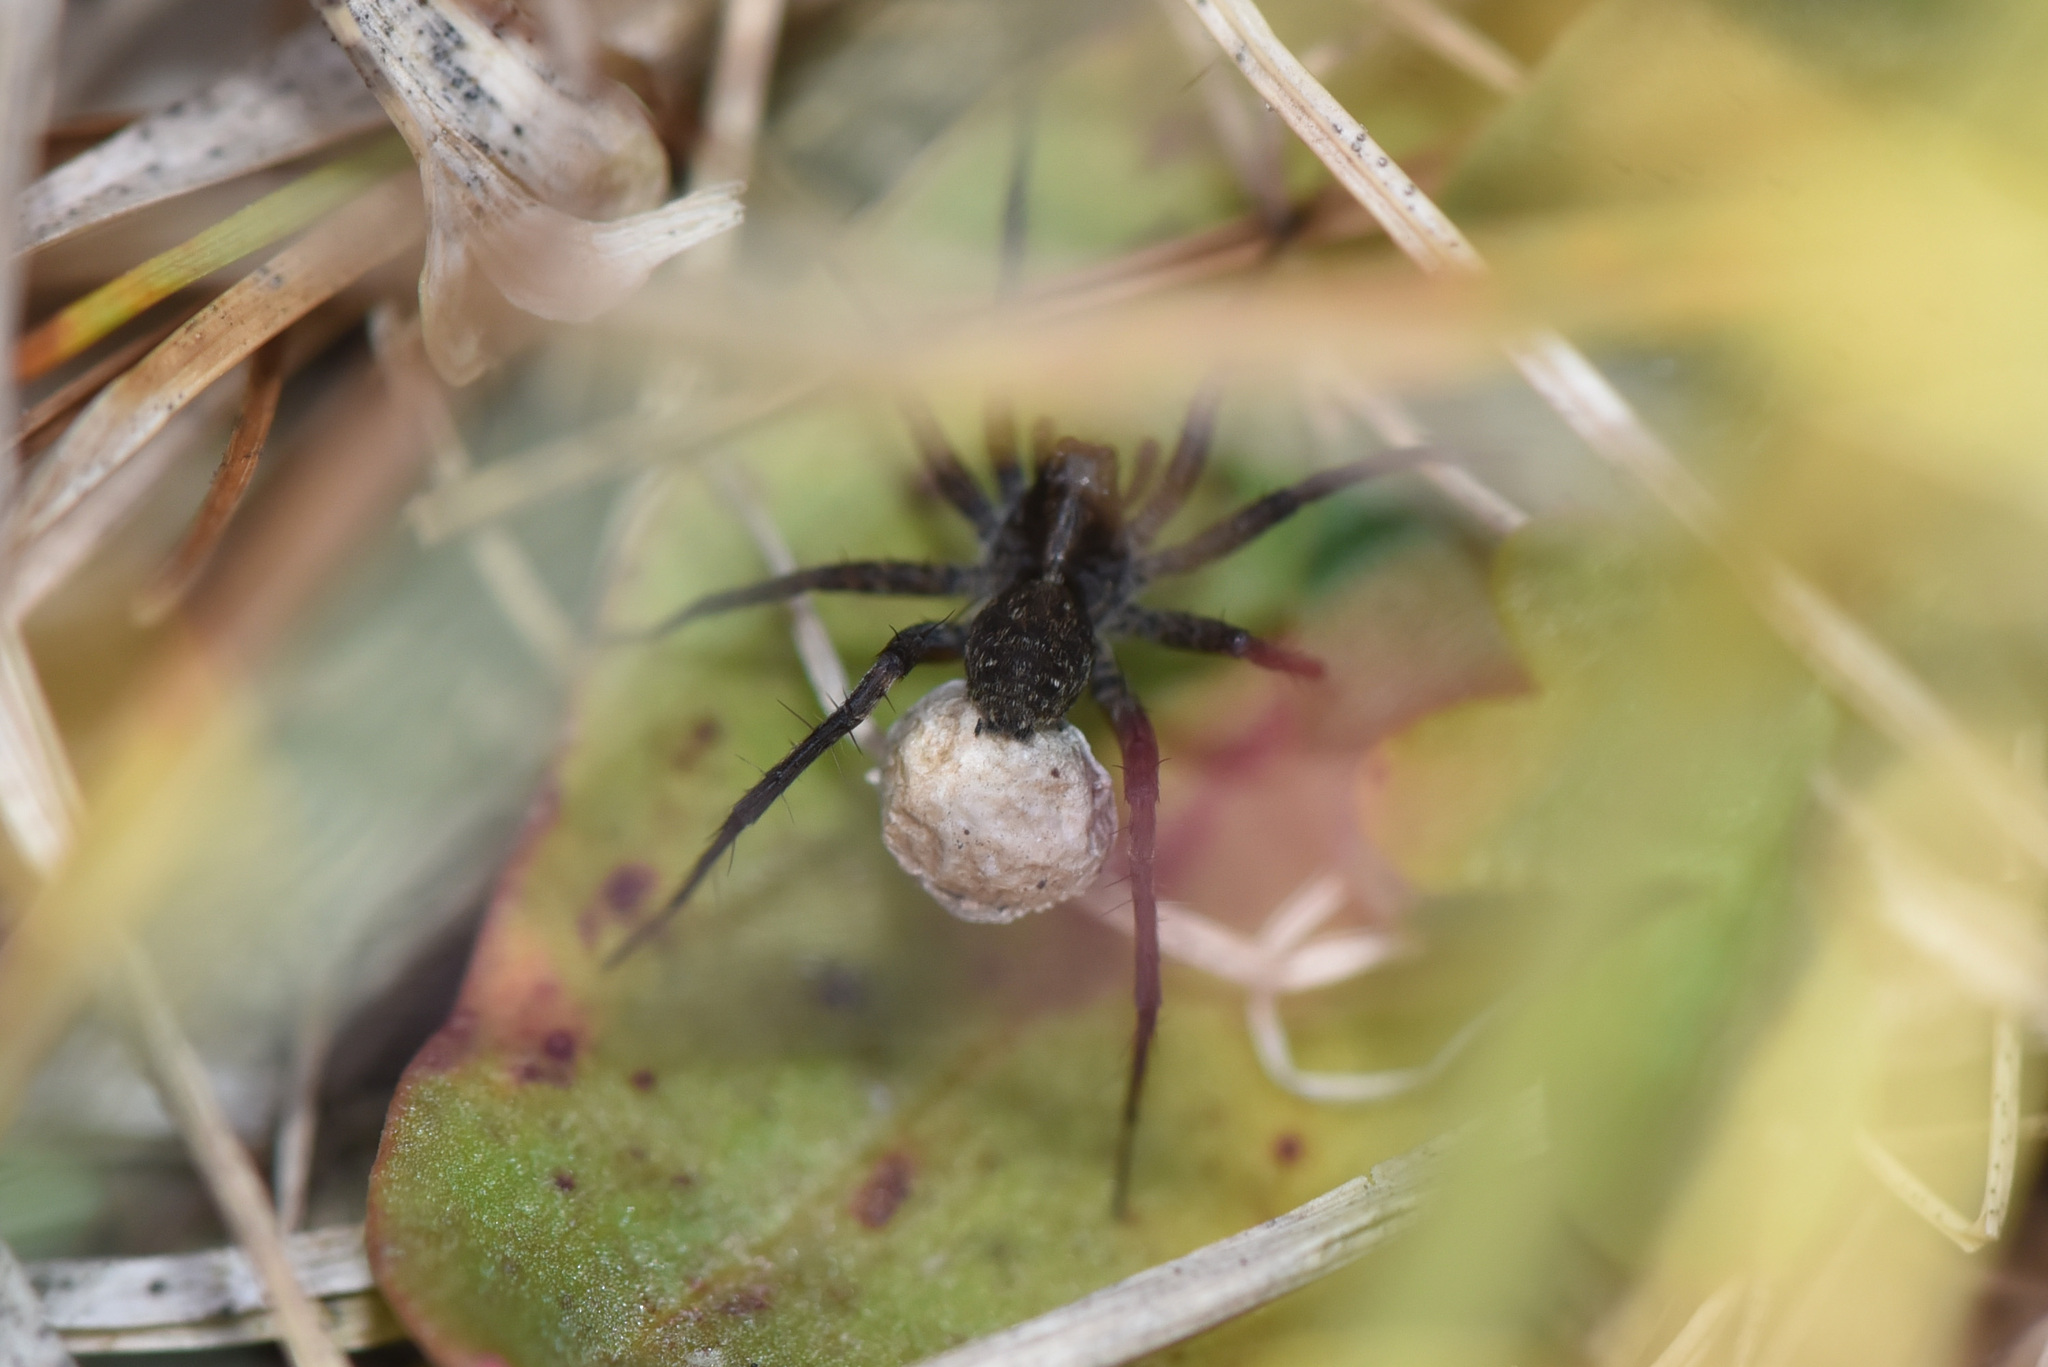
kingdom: Animalia
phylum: Arthropoda
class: Arachnida
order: Araneae
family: Lycosidae
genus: Pardosa
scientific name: Pardosa moesta
